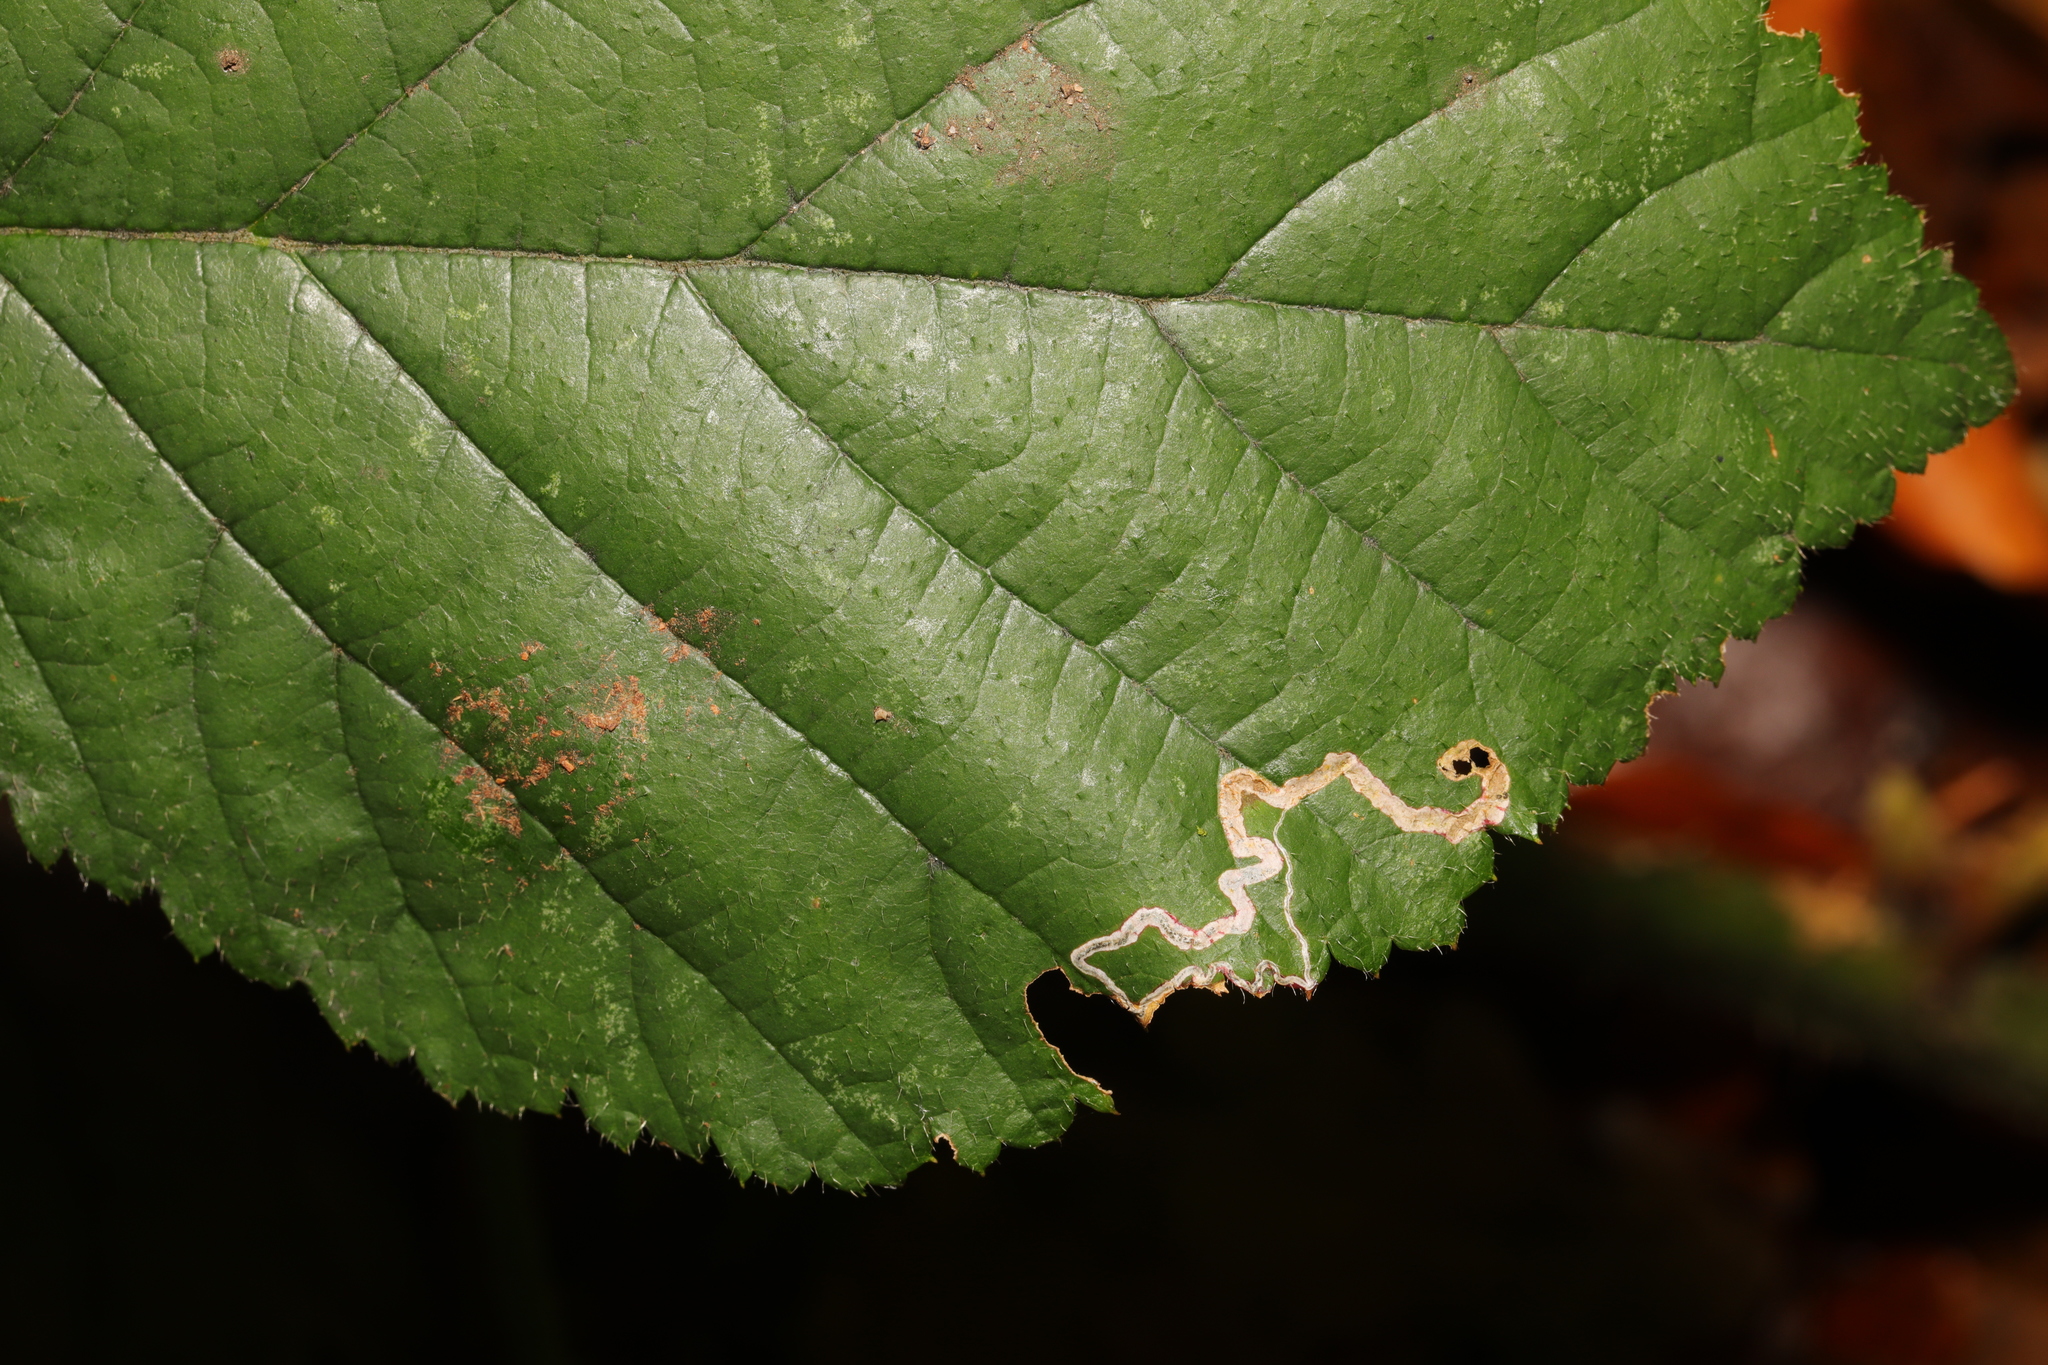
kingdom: Animalia
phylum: Arthropoda
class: Insecta
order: Lepidoptera
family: Nepticulidae
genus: Stigmella
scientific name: Stigmella aurella
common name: Golden pigmy
